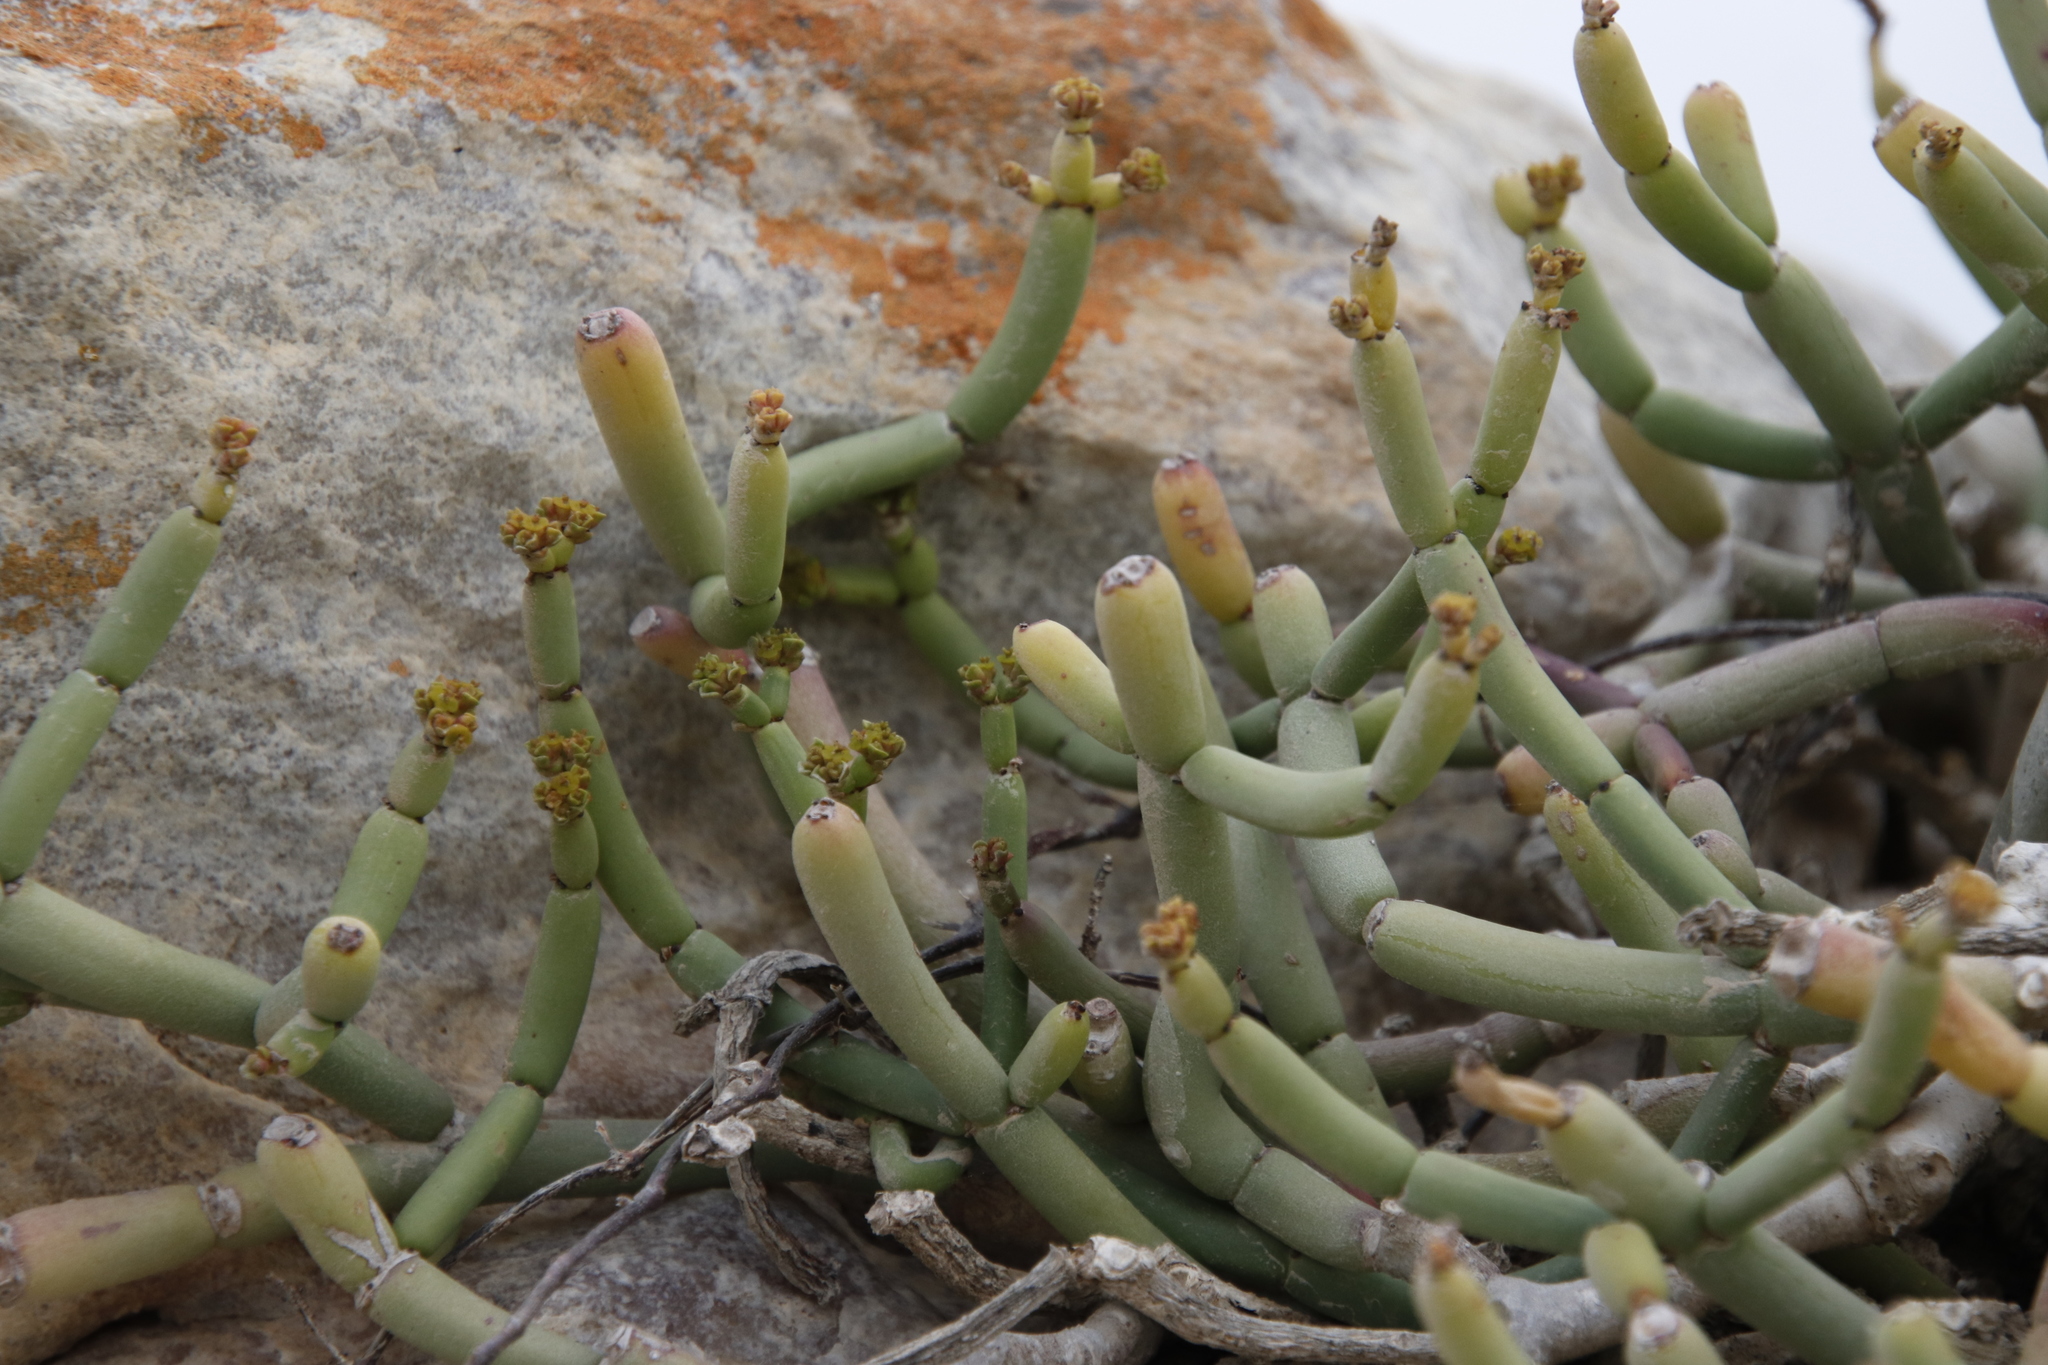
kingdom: Plantae
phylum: Tracheophyta
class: Magnoliopsida
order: Malpighiales
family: Euphorbiaceae
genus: Euphorbia
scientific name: Euphorbia burmanni
